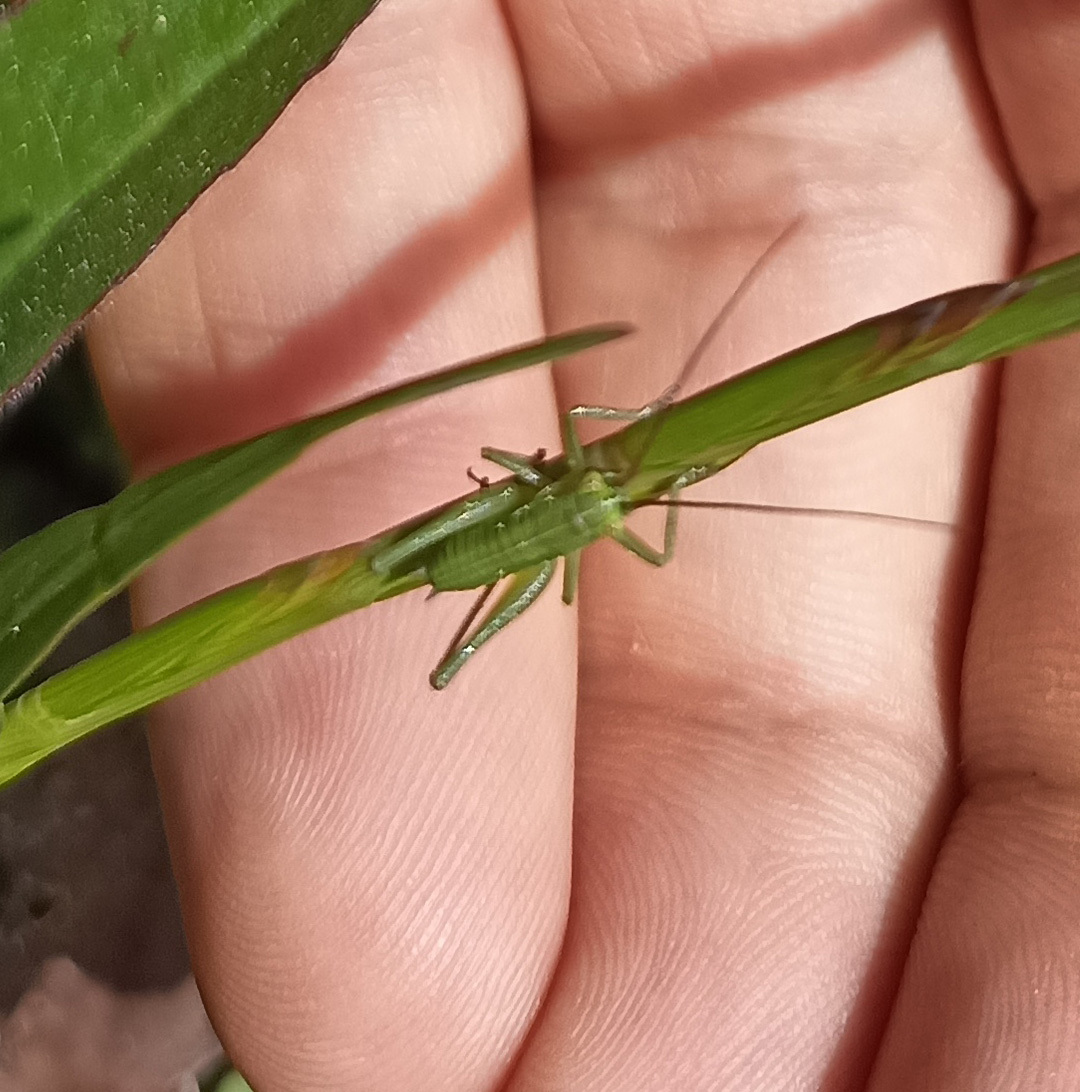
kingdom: Animalia
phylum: Arthropoda
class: Insecta
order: Orthoptera
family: Tettigoniidae
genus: Tettigonia
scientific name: Tettigonia viridissima
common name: Great green bush-cricket
